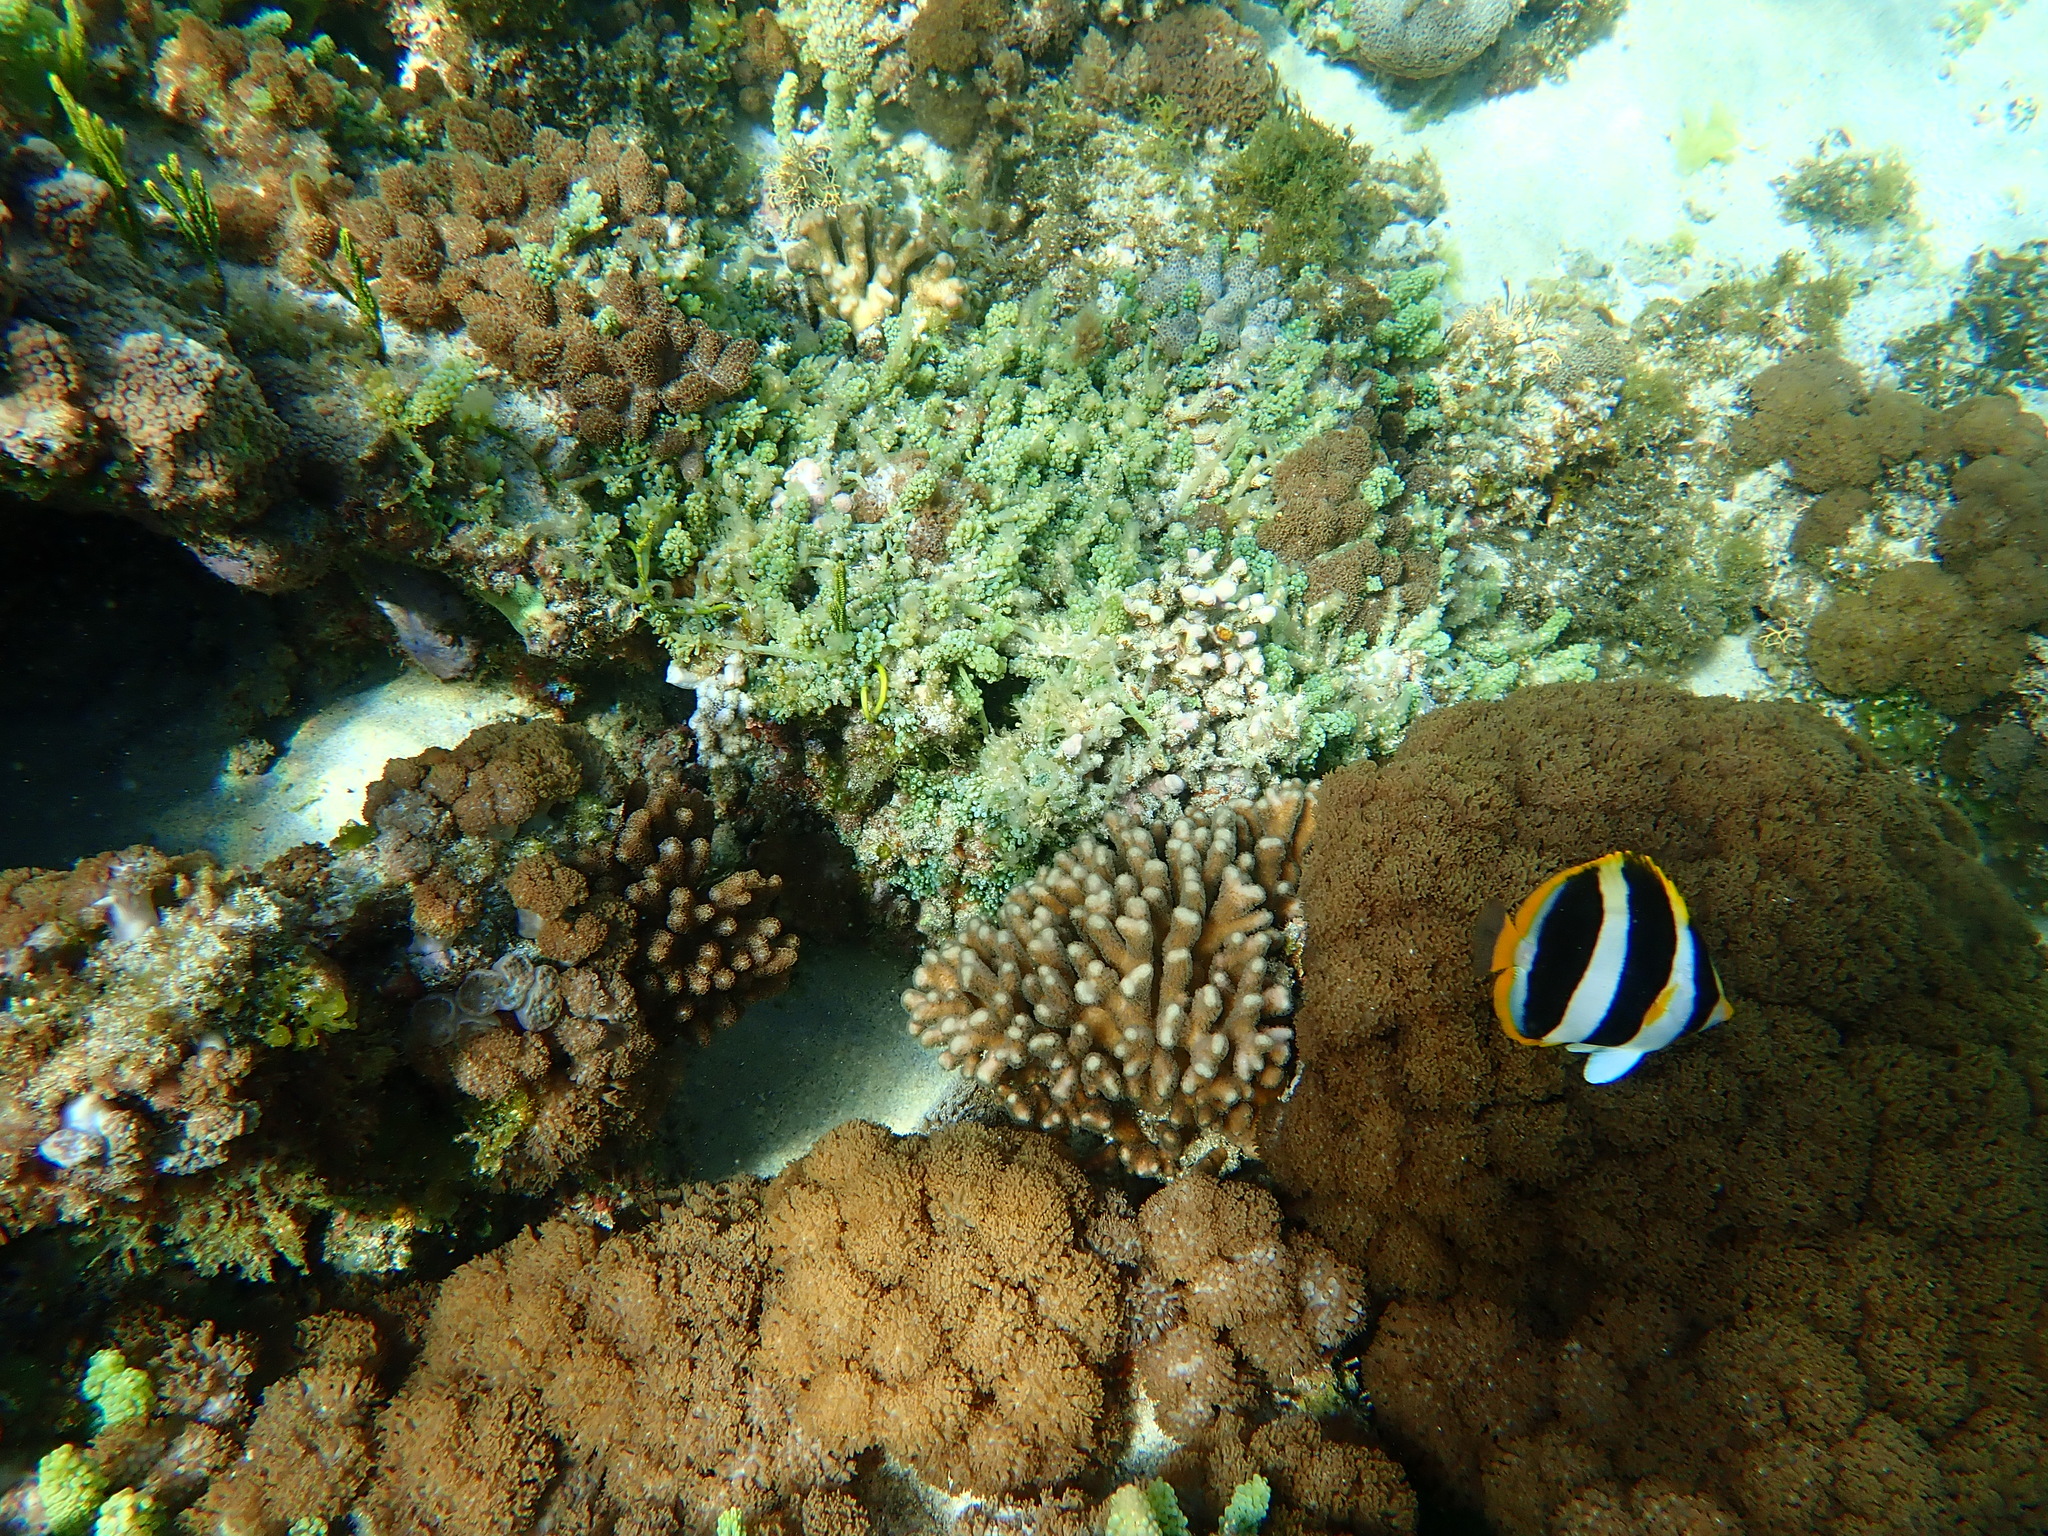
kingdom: Animalia
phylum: Chordata
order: Perciformes
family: Chaetodontidae
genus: Chaetodon
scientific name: Chaetodon tricinctus
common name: Three-striped butterflyfish
